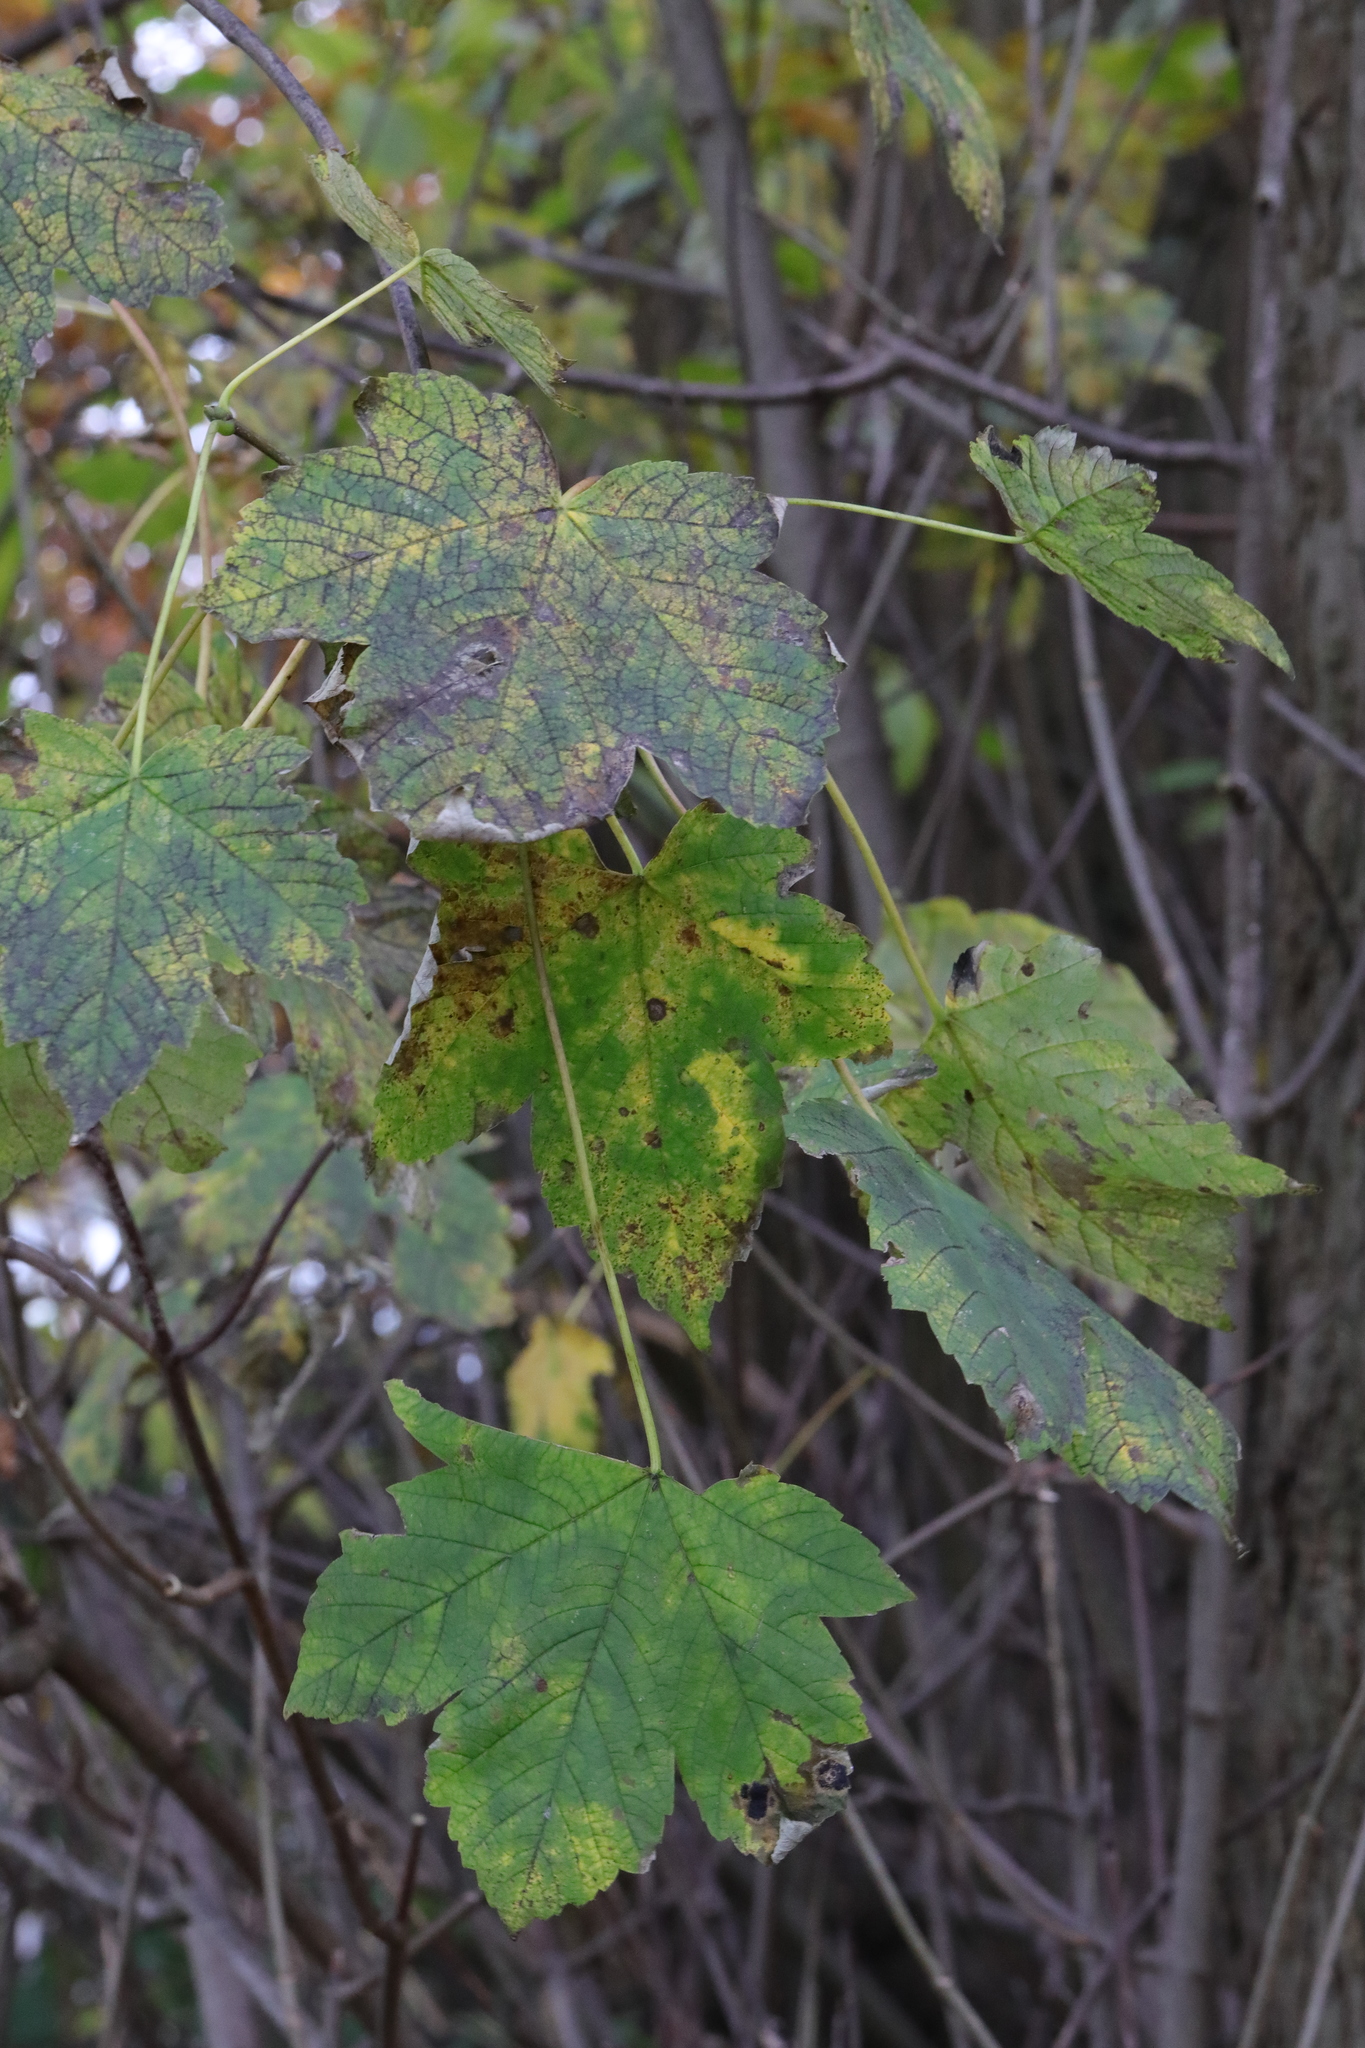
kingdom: Plantae
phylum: Tracheophyta
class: Magnoliopsida
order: Sapindales
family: Sapindaceae
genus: Acer
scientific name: Acer pseudoplatanus
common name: Sycamore
